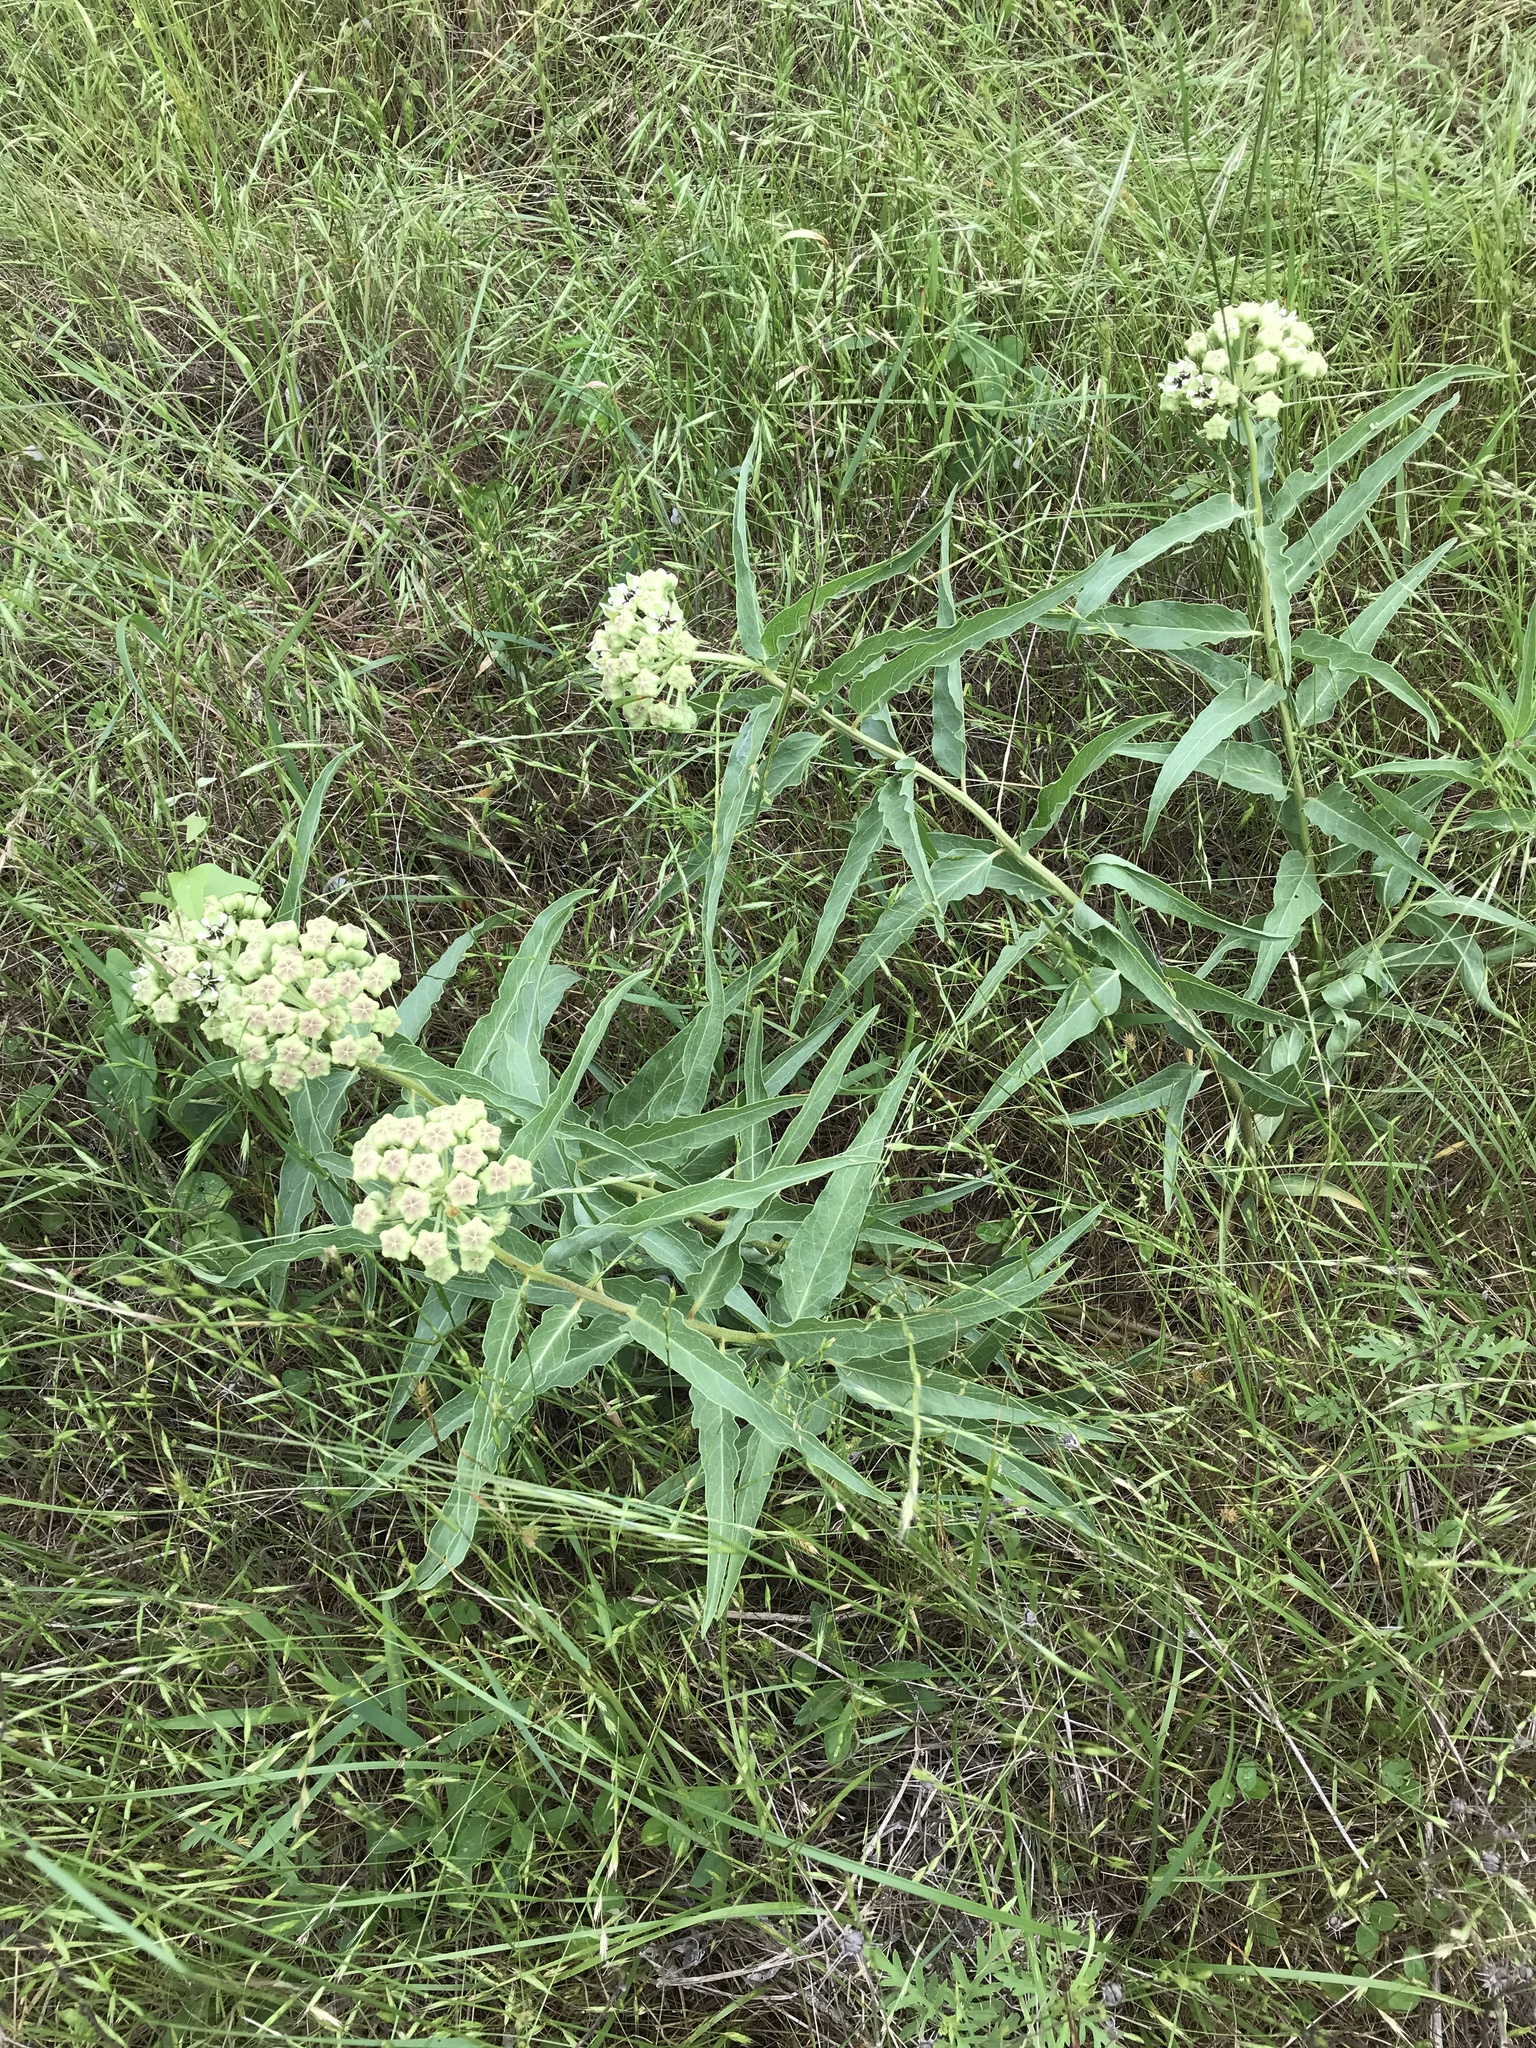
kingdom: Plantae
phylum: Tracheophyta
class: Magnoliopsida
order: Gentianales
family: Apocynaceae
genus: Asclepias
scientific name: Asclepias asperula
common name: Antelope horns
